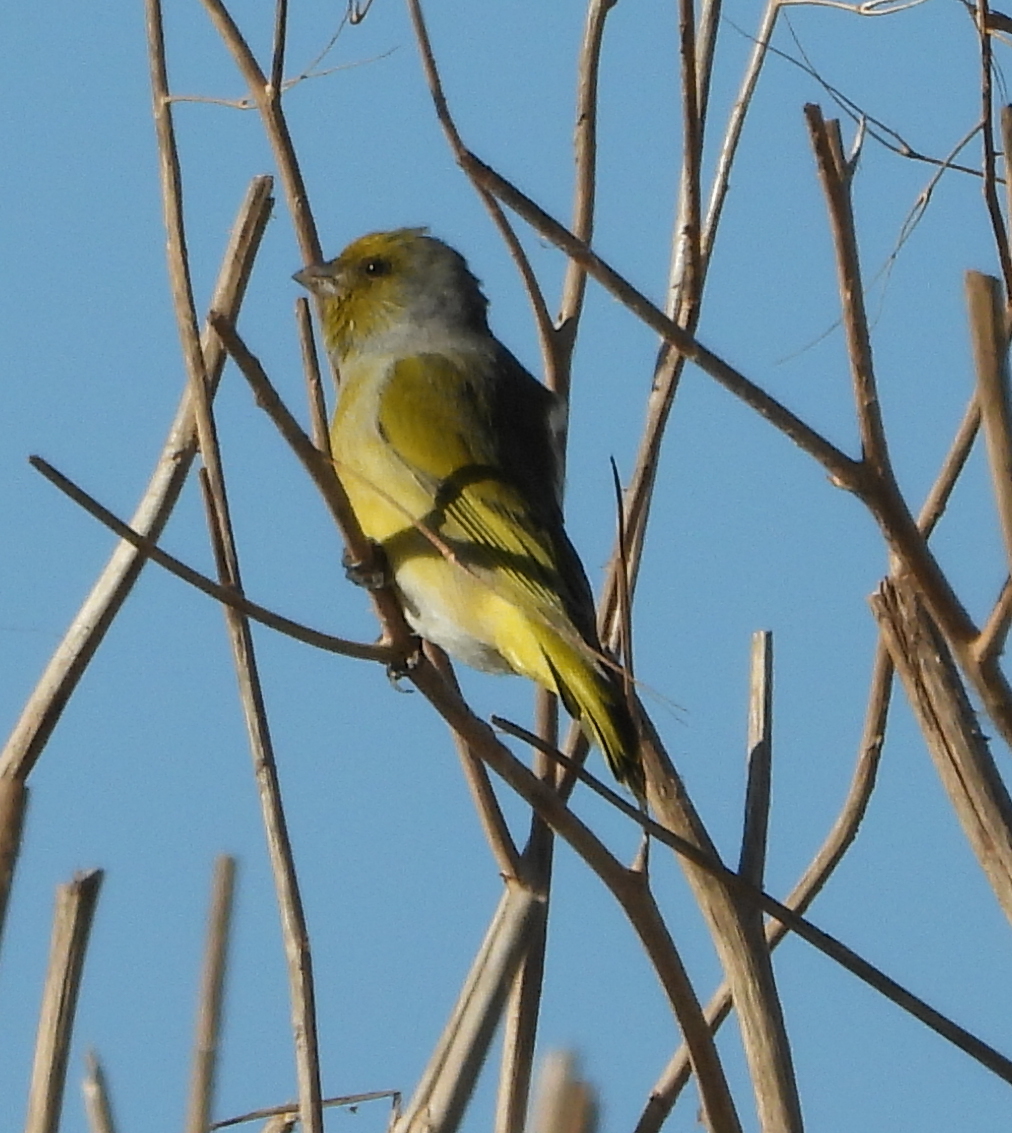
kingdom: Animalia
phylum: Chordata
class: Aves
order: Passeriformes
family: Fringillidae
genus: Serinus
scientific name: Serinus canicollis
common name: Cape canary
